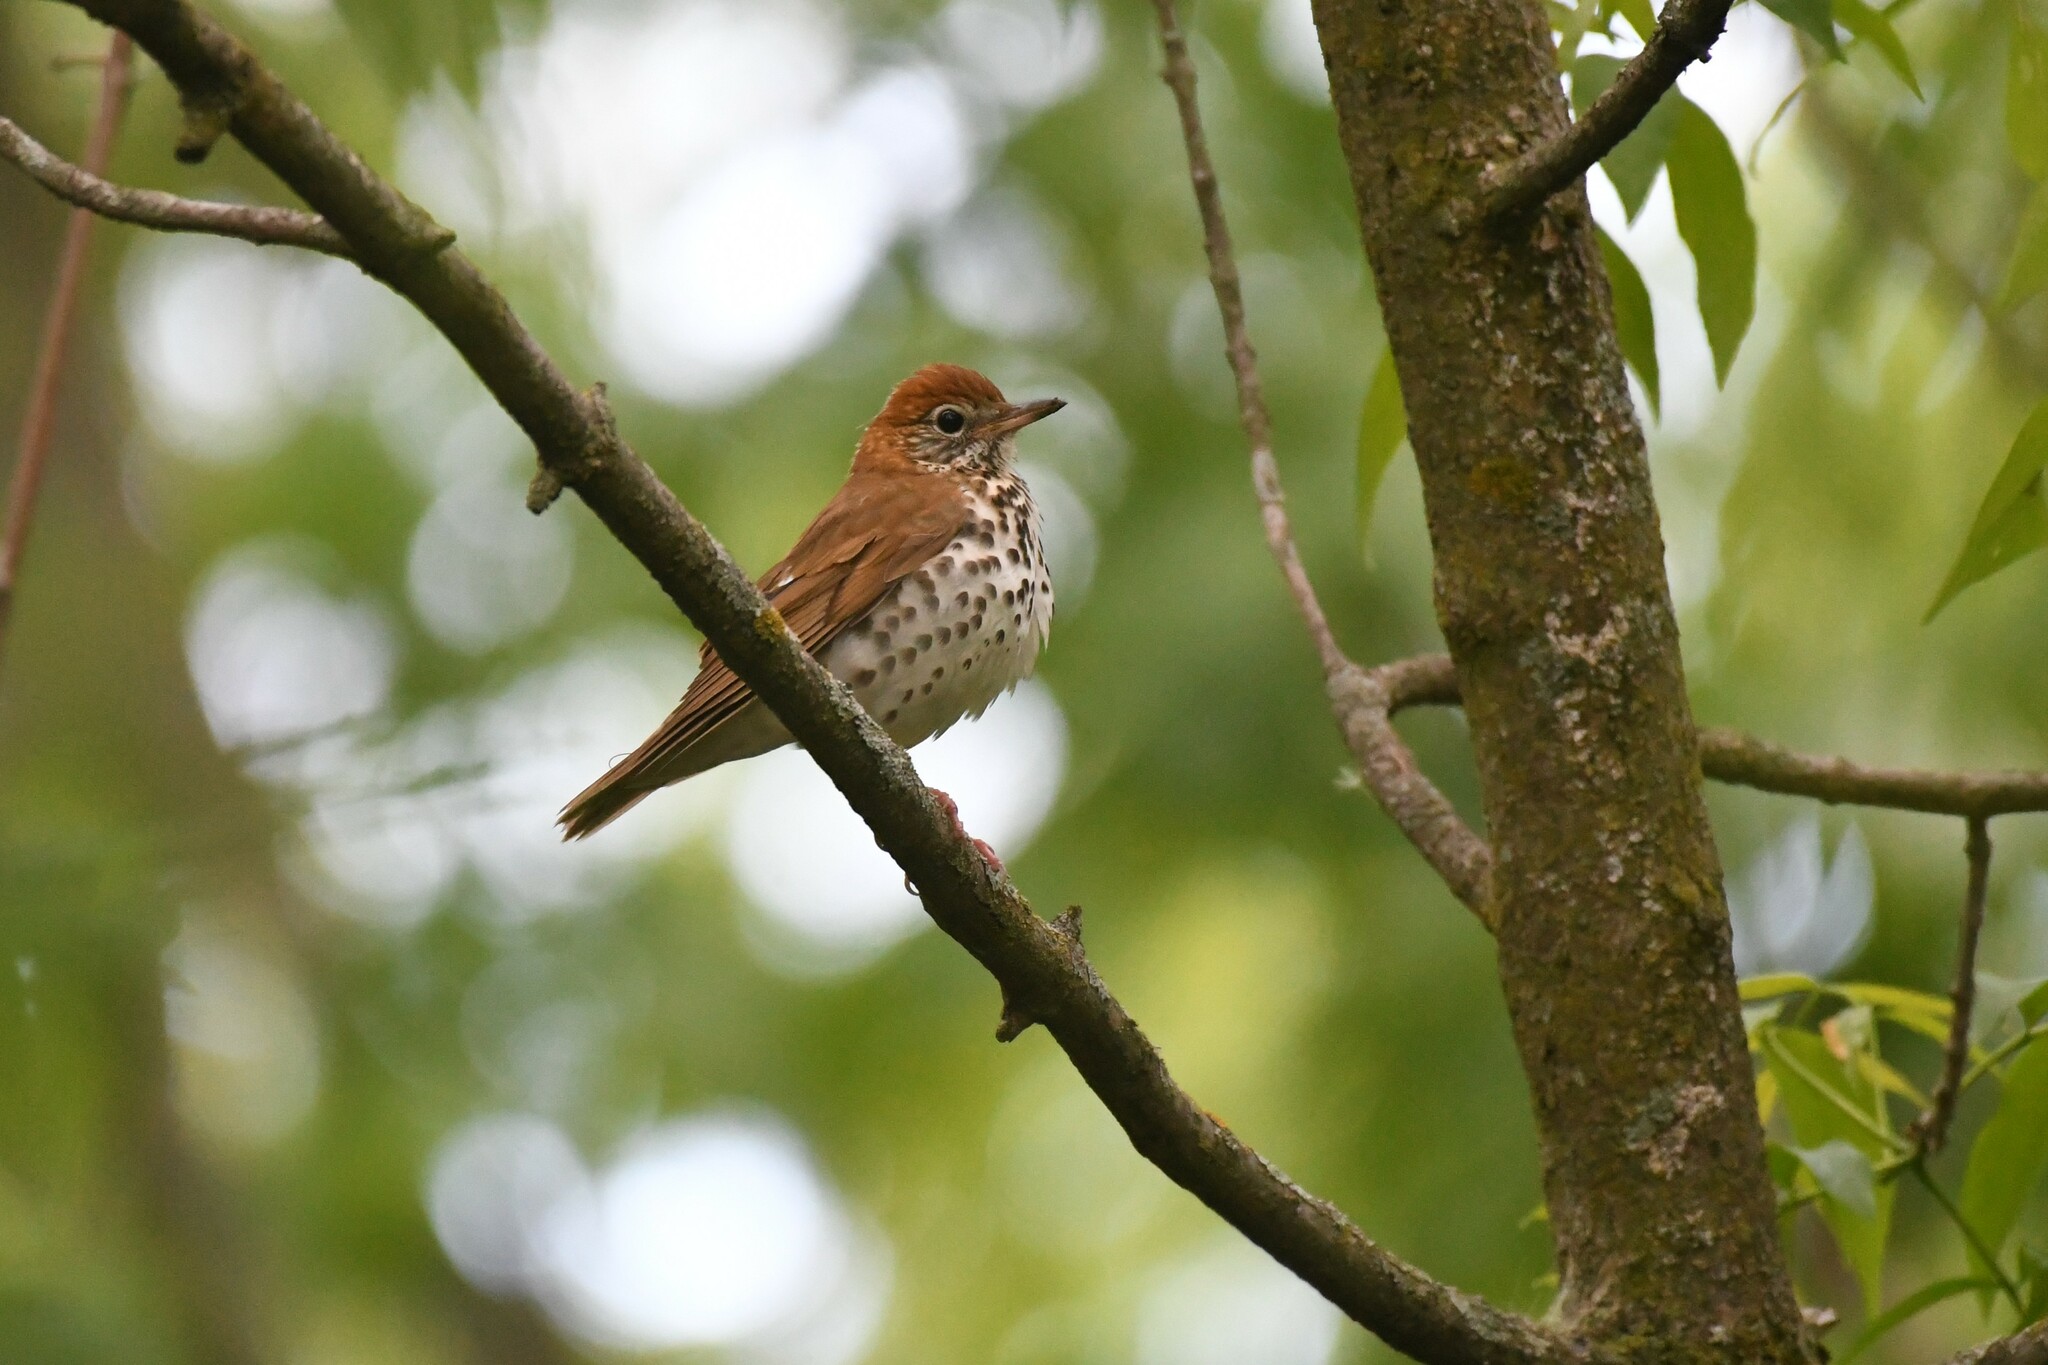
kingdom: Animalia
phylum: Chordata
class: Aves
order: Passeriformes
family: Turdidae
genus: Hylocichla
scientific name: Hylocichla mustelina
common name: Wood thrush
